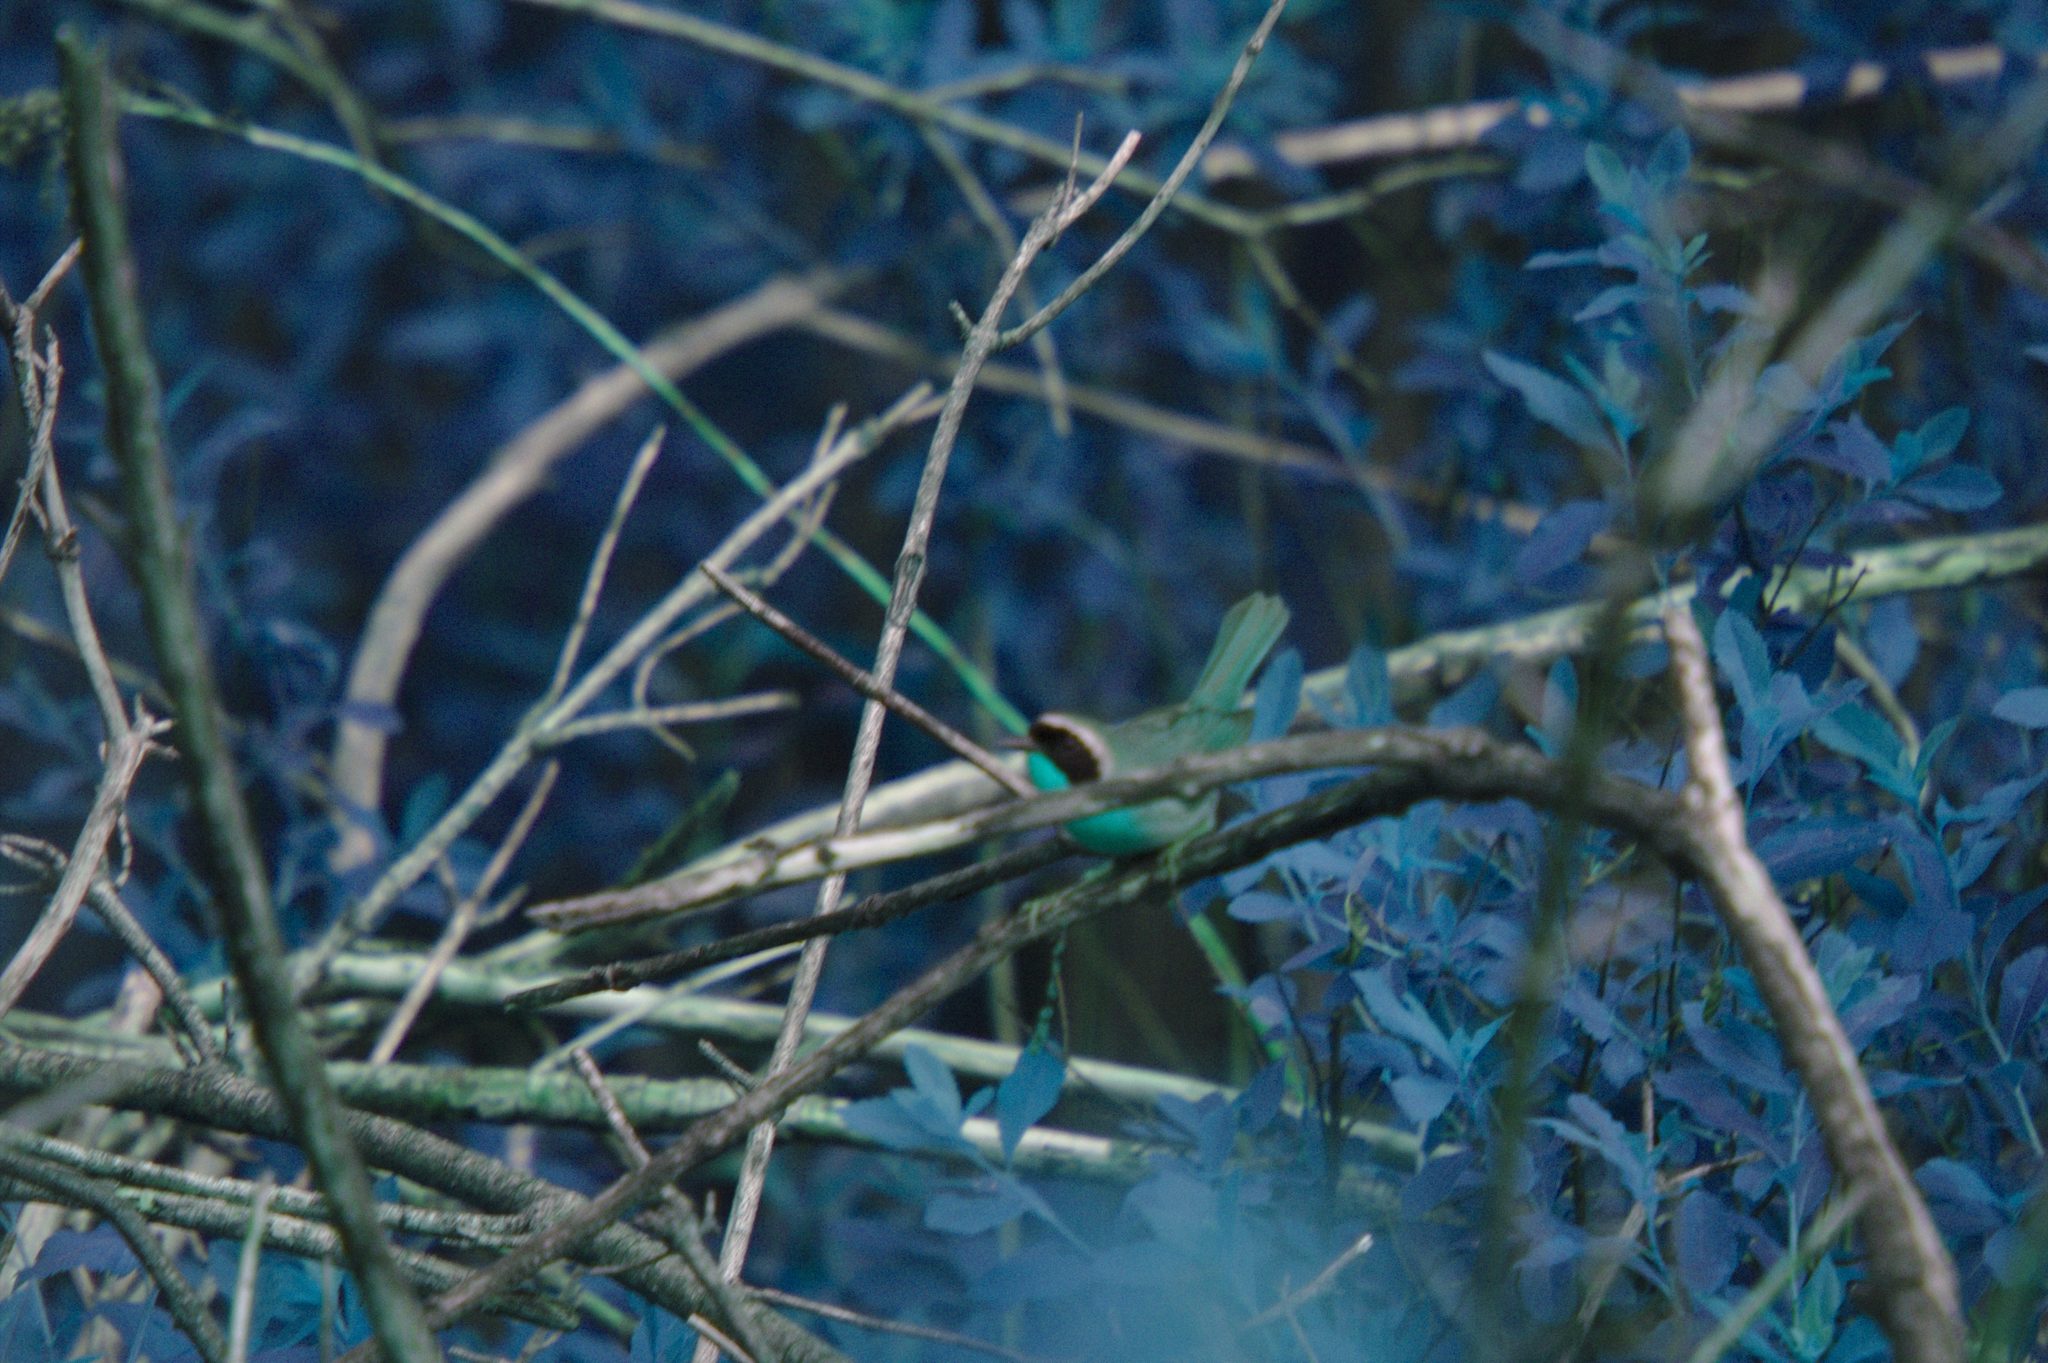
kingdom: Animalia
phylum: Chordata
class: Aves
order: Passeriformes
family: Parulidae
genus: Geothlypis
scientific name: Geothlypis trichas
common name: Common yellowthroat
